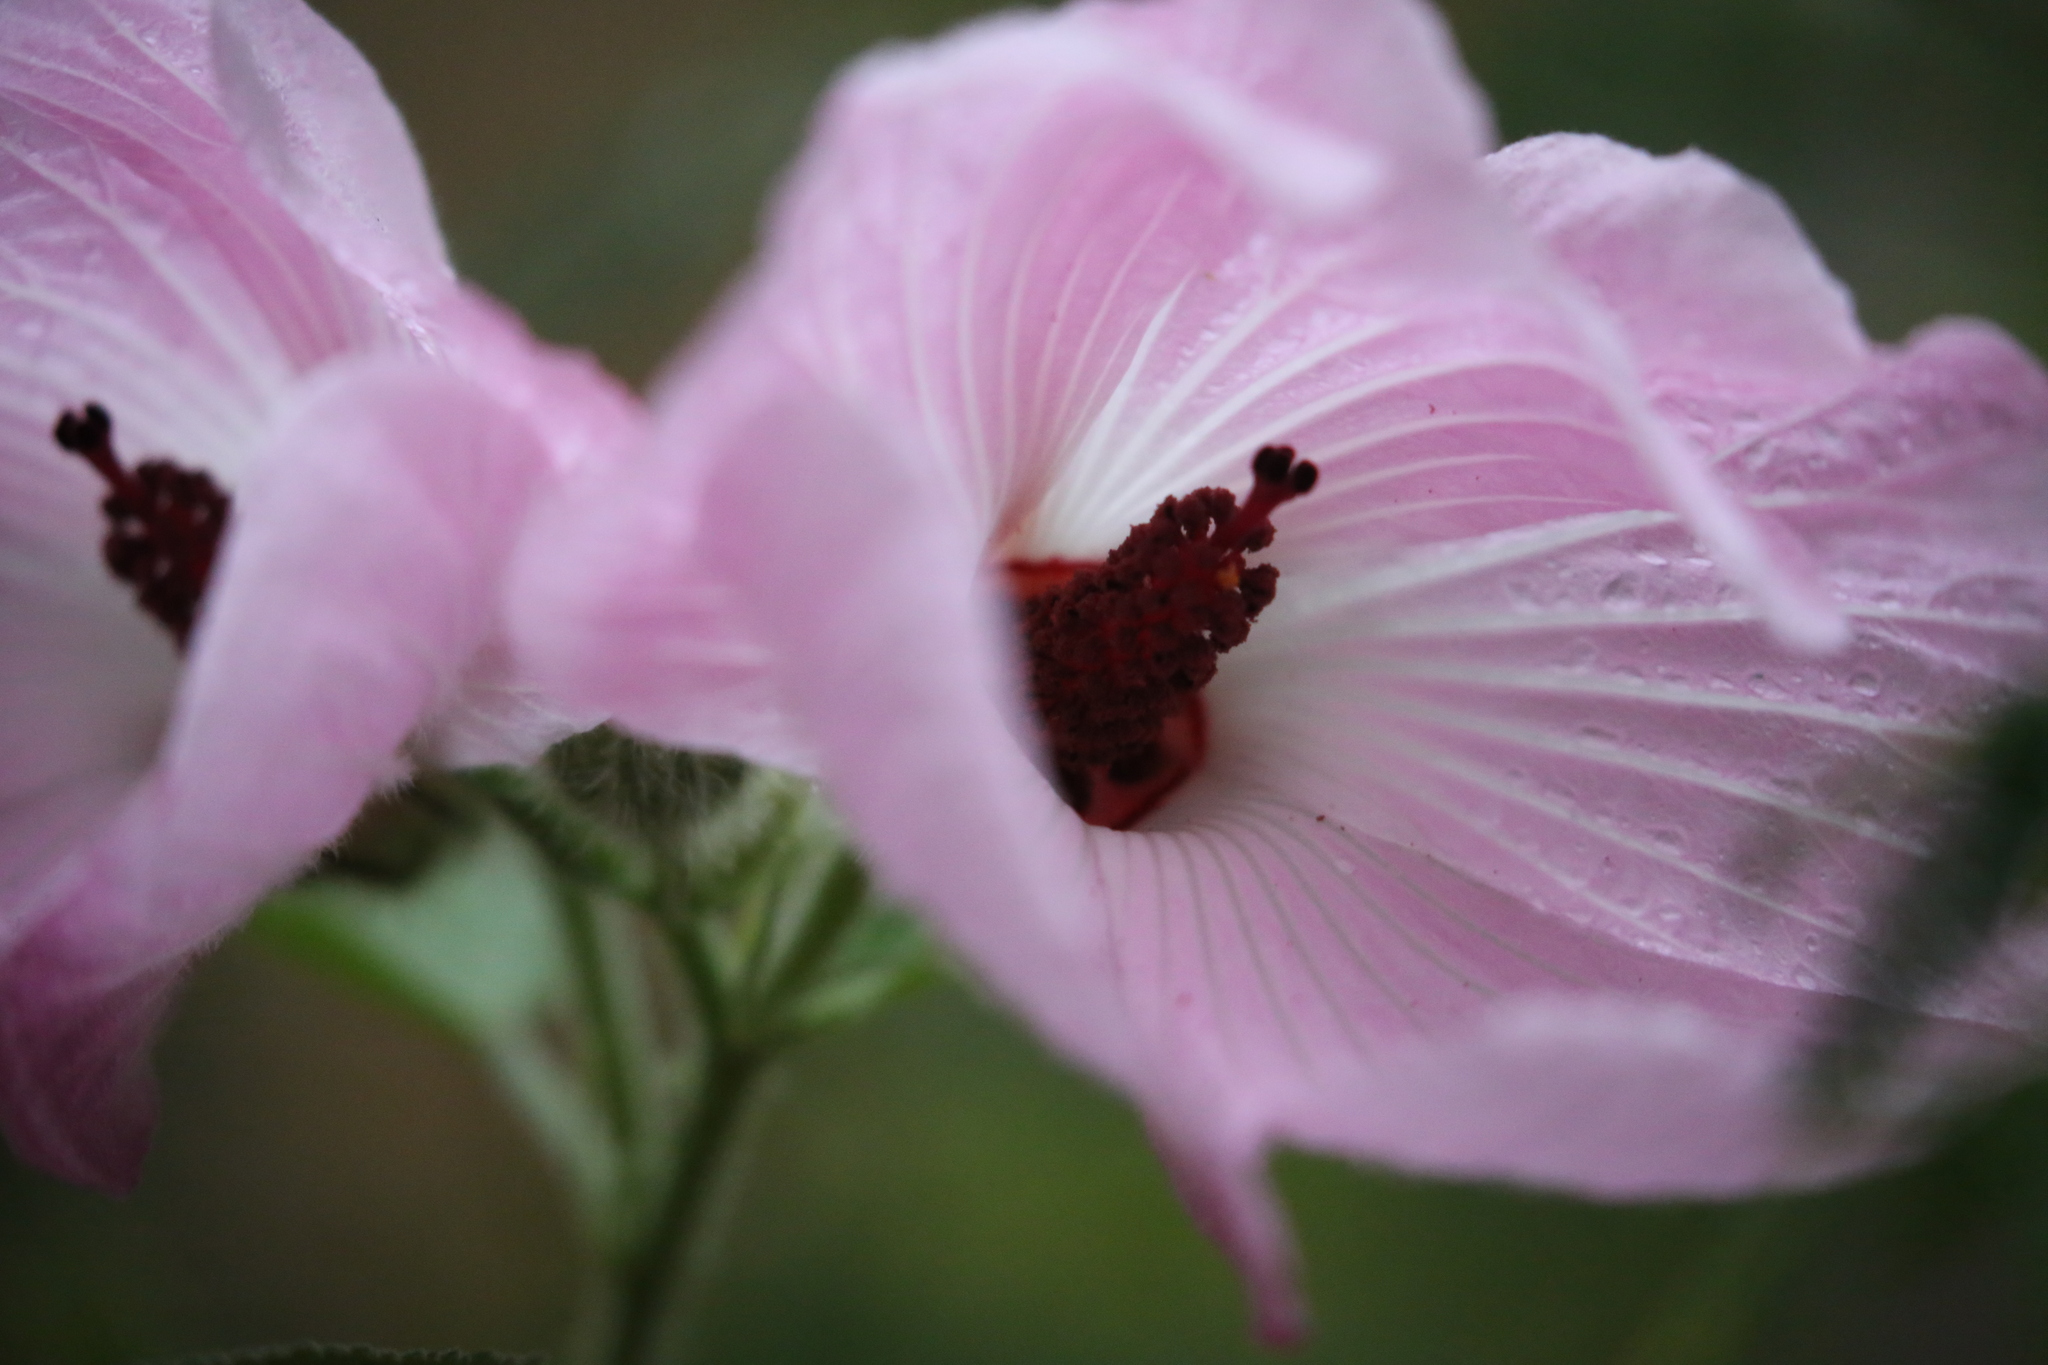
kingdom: Plantae
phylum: Tracheophyta
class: Magnoliopsida
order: Malvales
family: Malvaceae
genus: Hibiscus
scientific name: Hibiscus splendens
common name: Hollyhock-tree
